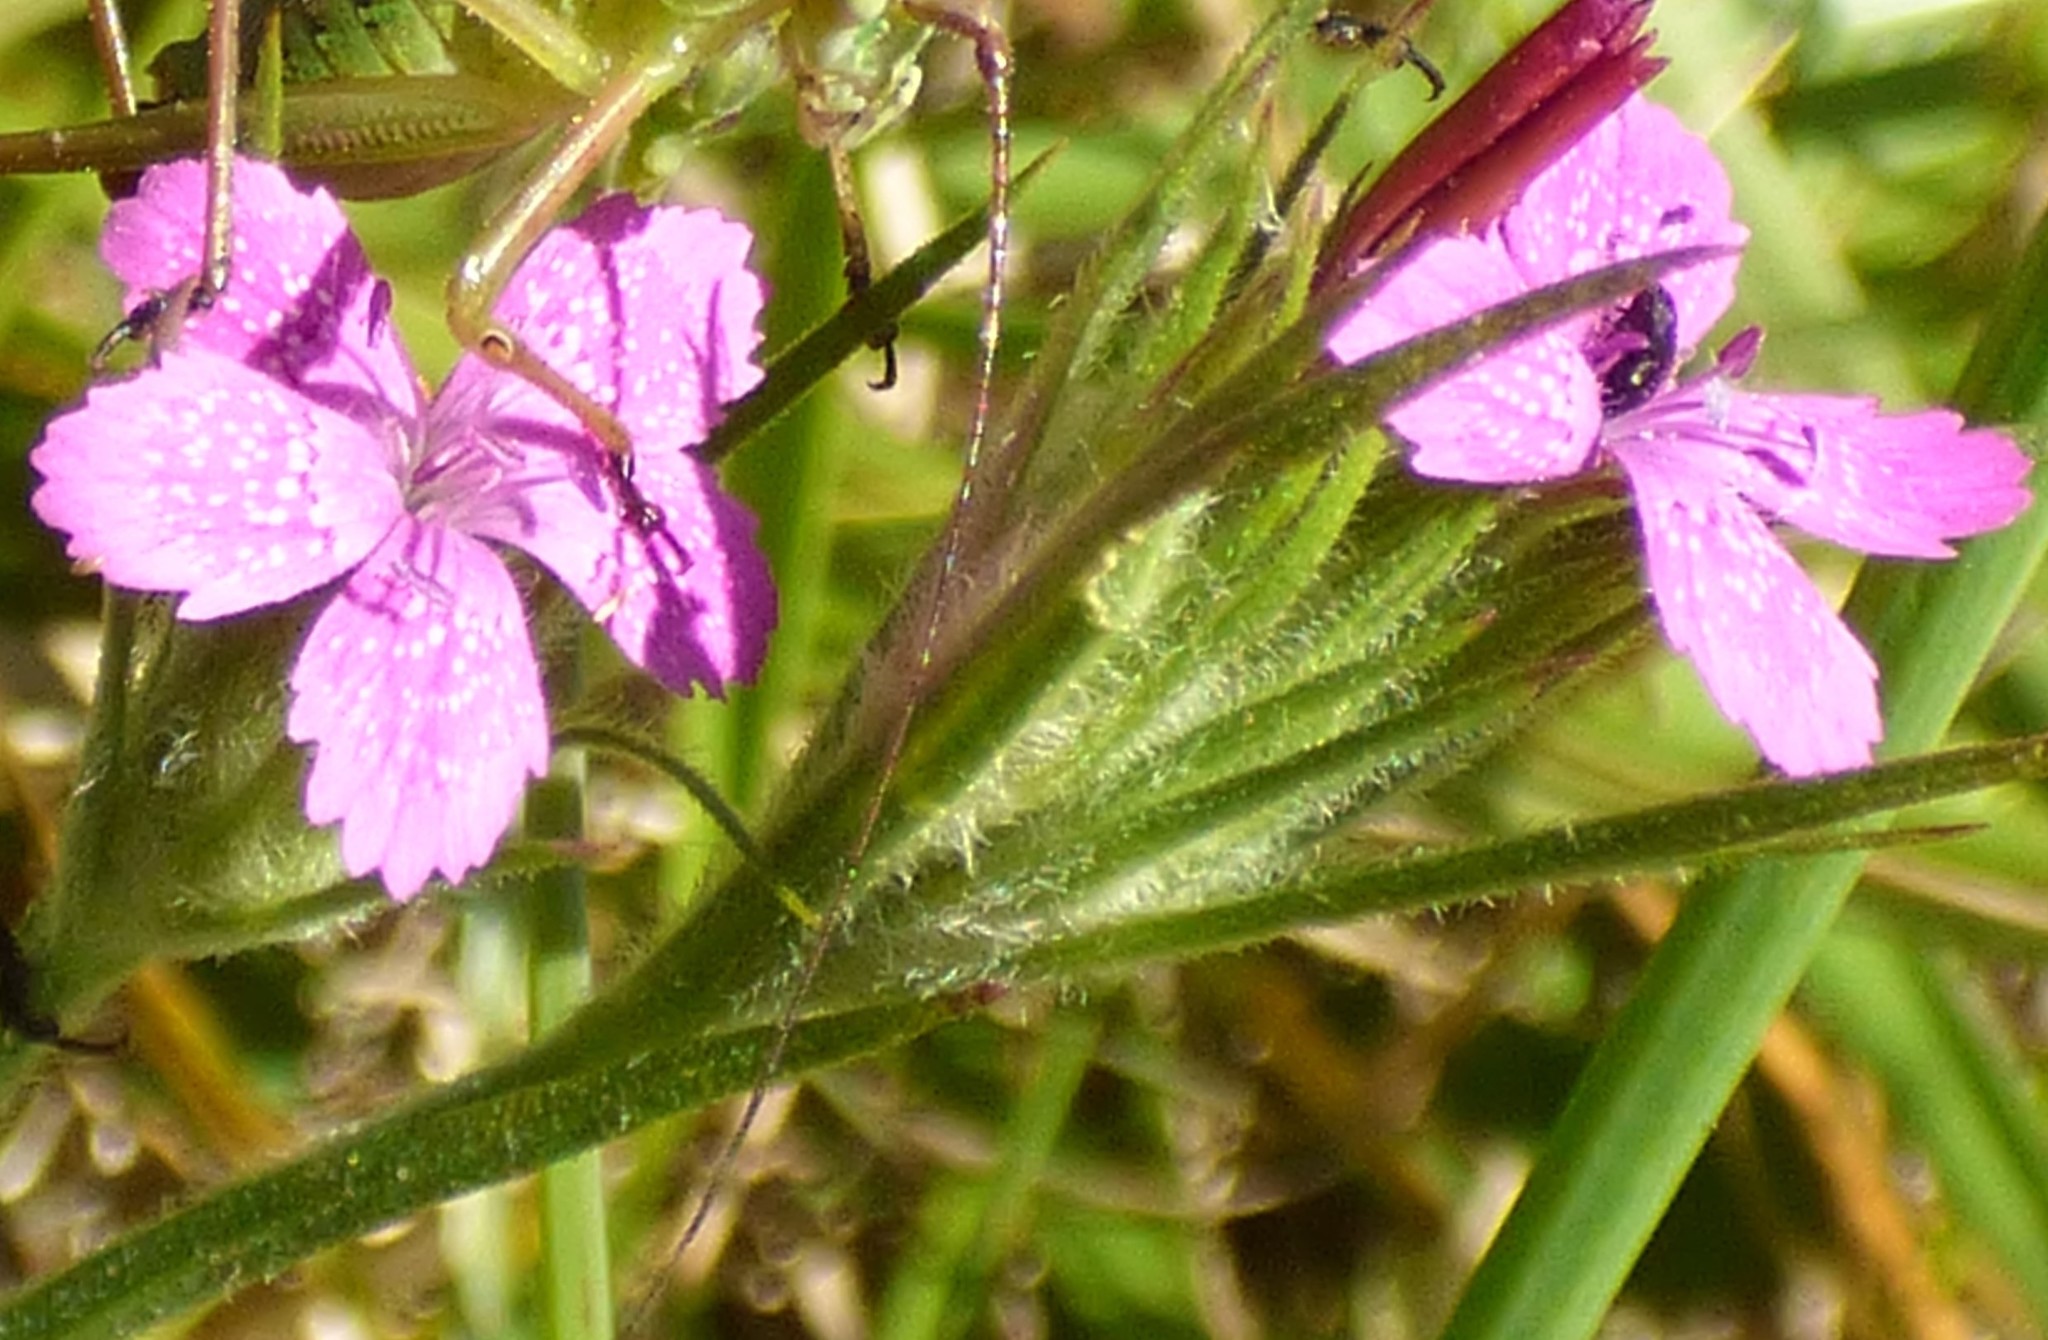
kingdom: Plantae
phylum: Tracheophyta
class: Magnoliopsida
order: Caryophyllales
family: Caryophyllaceae
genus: Dianthus
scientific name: Dianthus armeria
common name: Deptford pink
